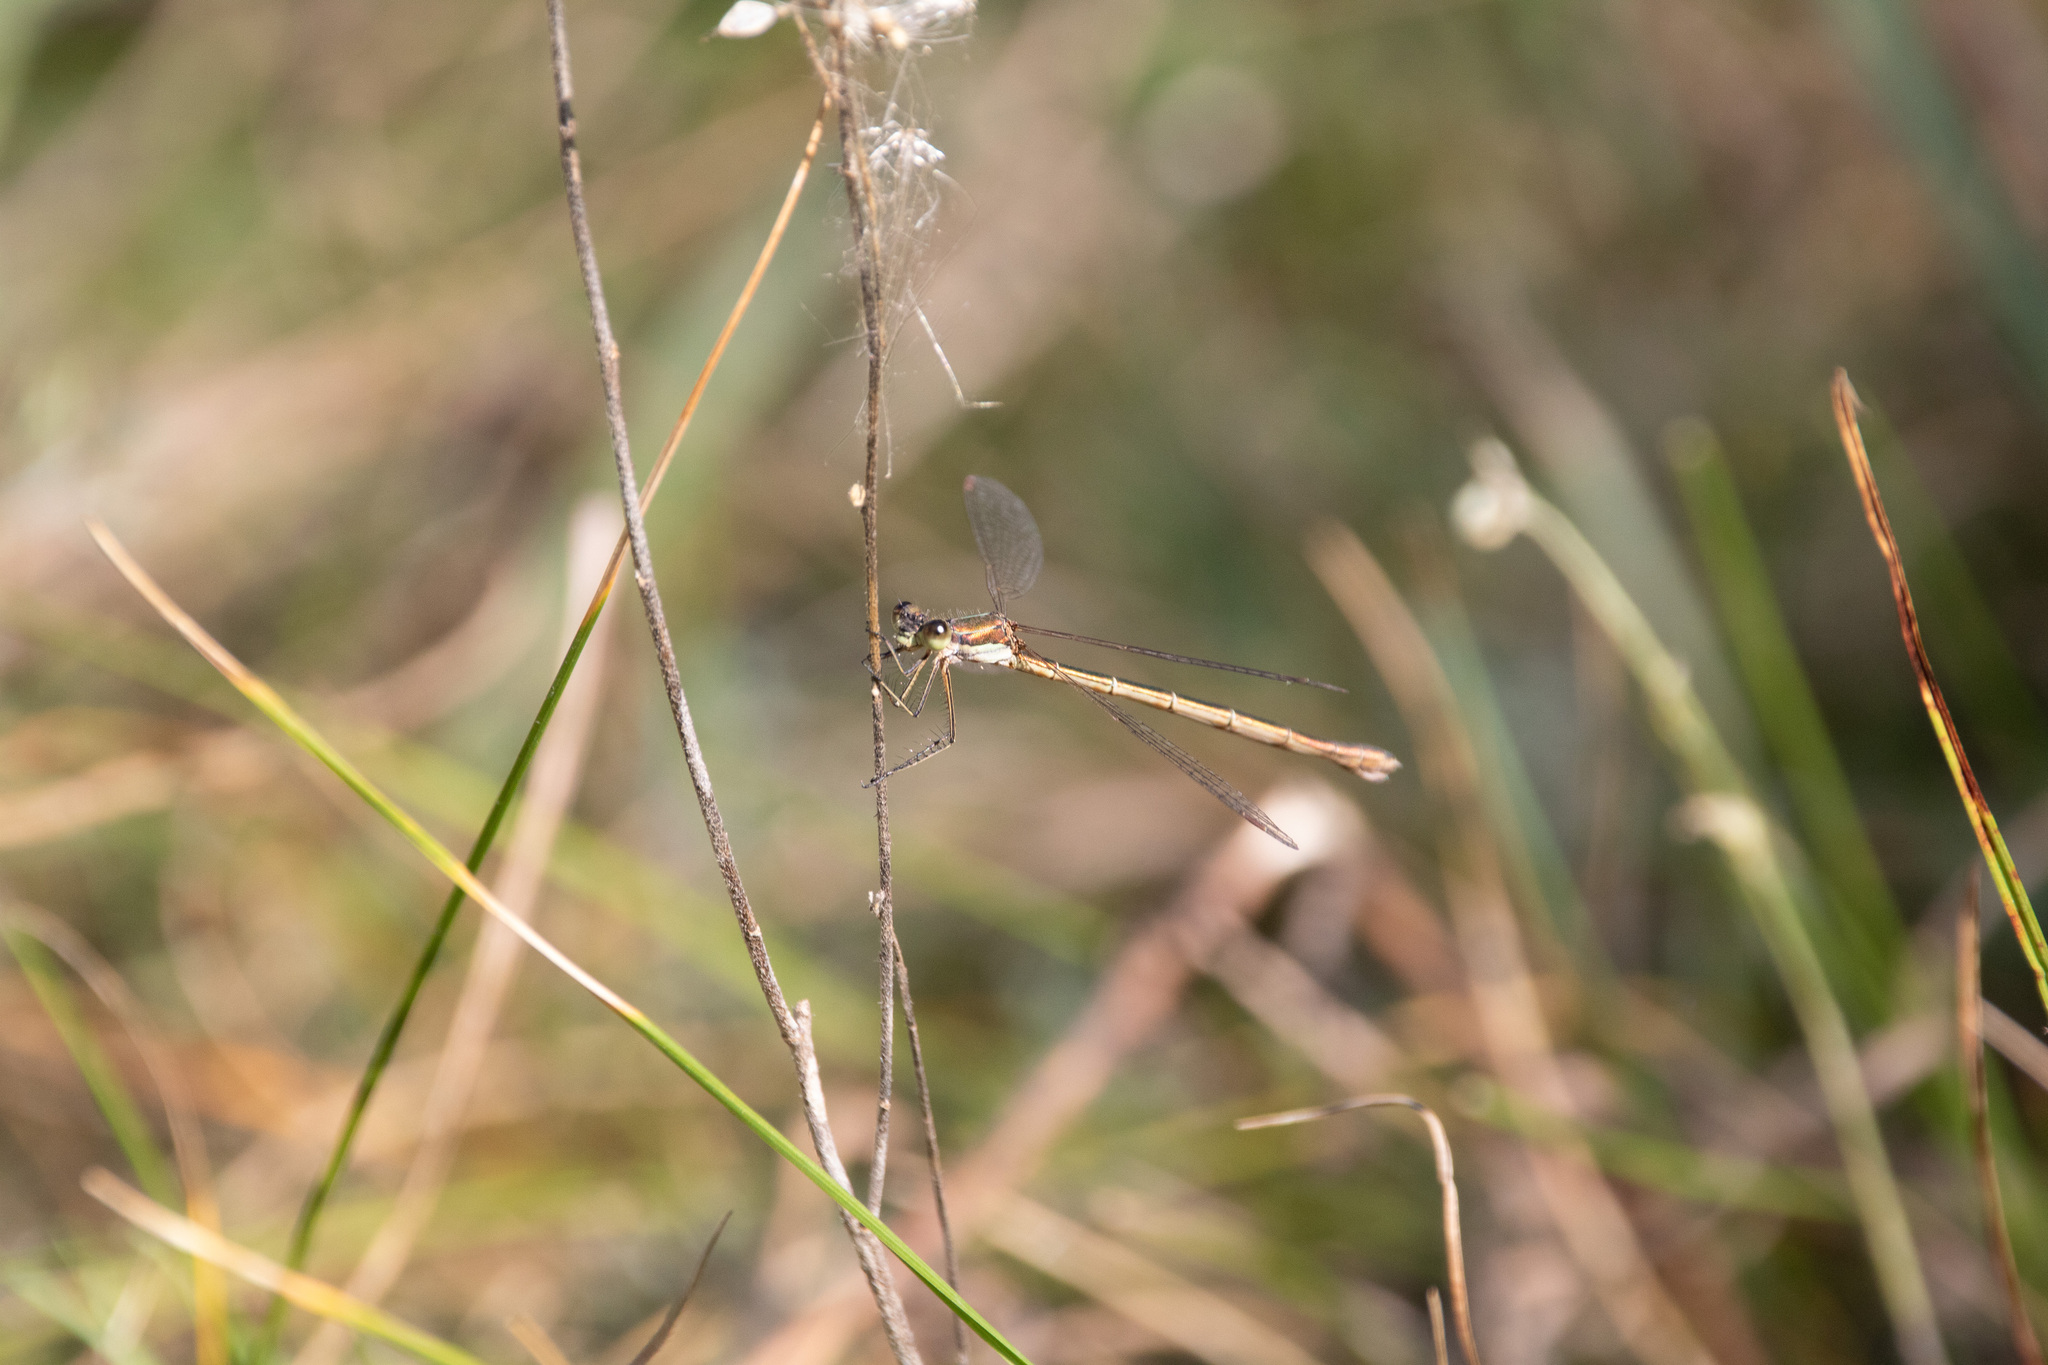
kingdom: Animalia
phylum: Arthropoda
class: Insecta
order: Odonata
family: Lestidae
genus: Lestes
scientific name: Lestes virens
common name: Small emerald spreadwing
